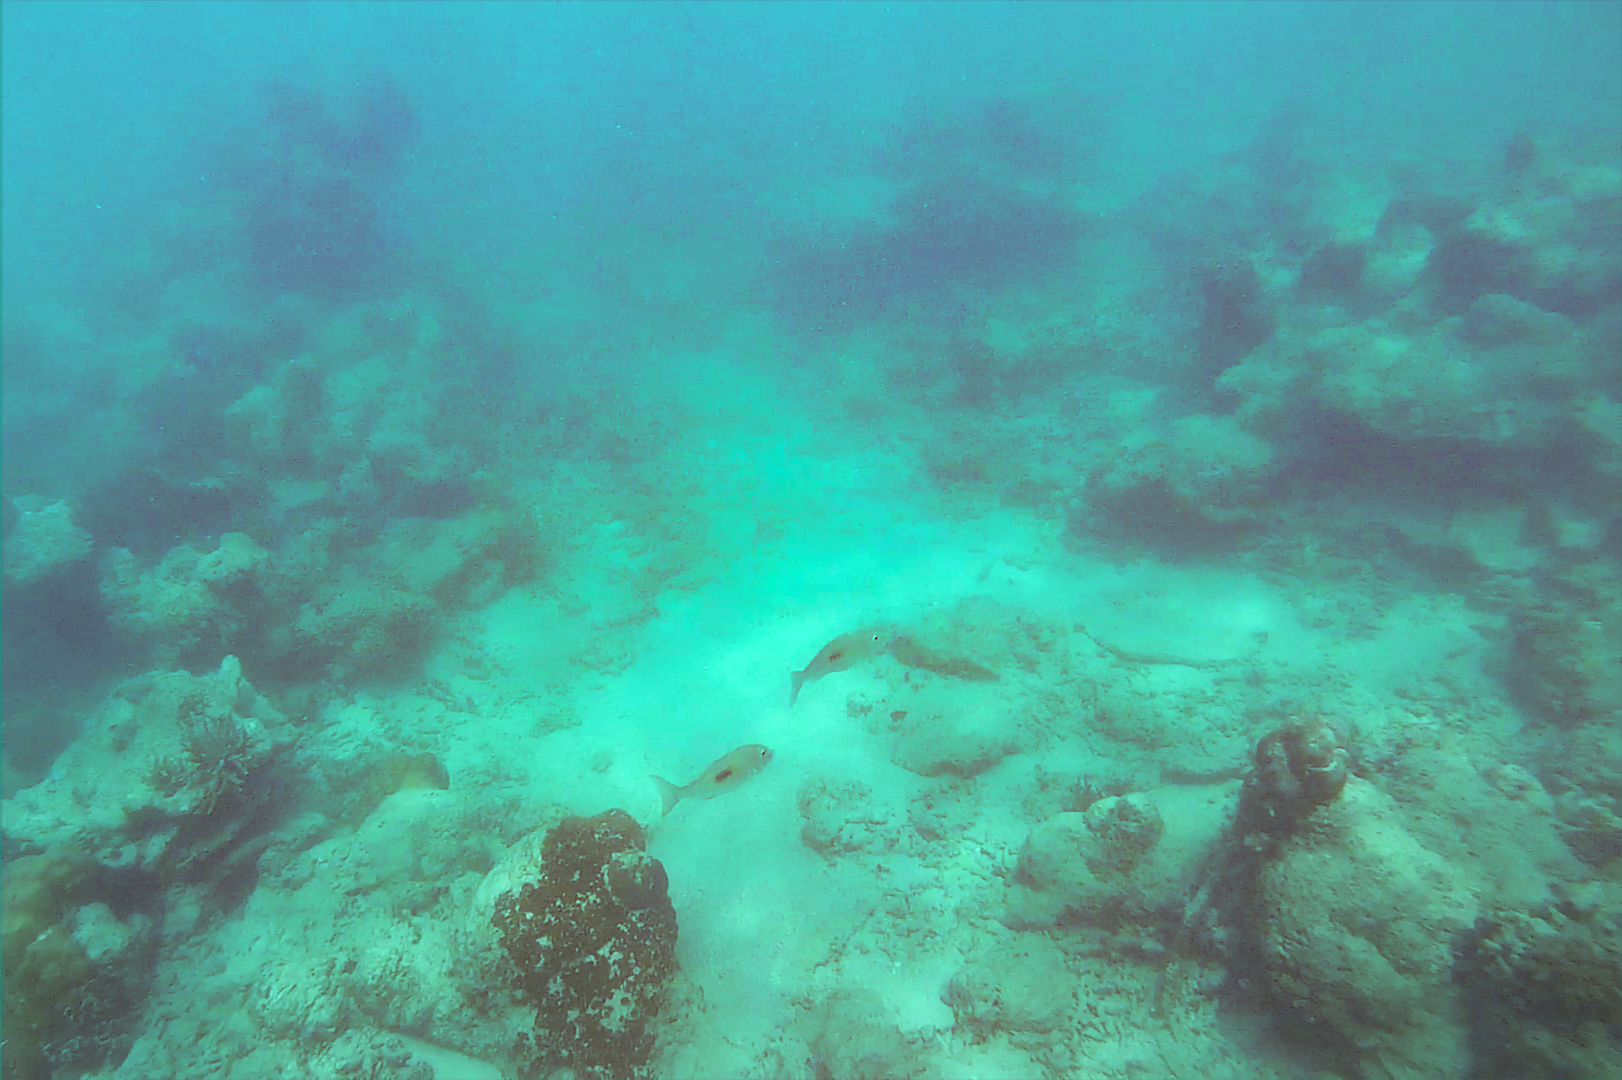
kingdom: Animalia
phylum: Chordata
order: Perciformes
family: Lethrinidae
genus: Lethrinus
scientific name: Lethrinus harak
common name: Blackspot emperor
